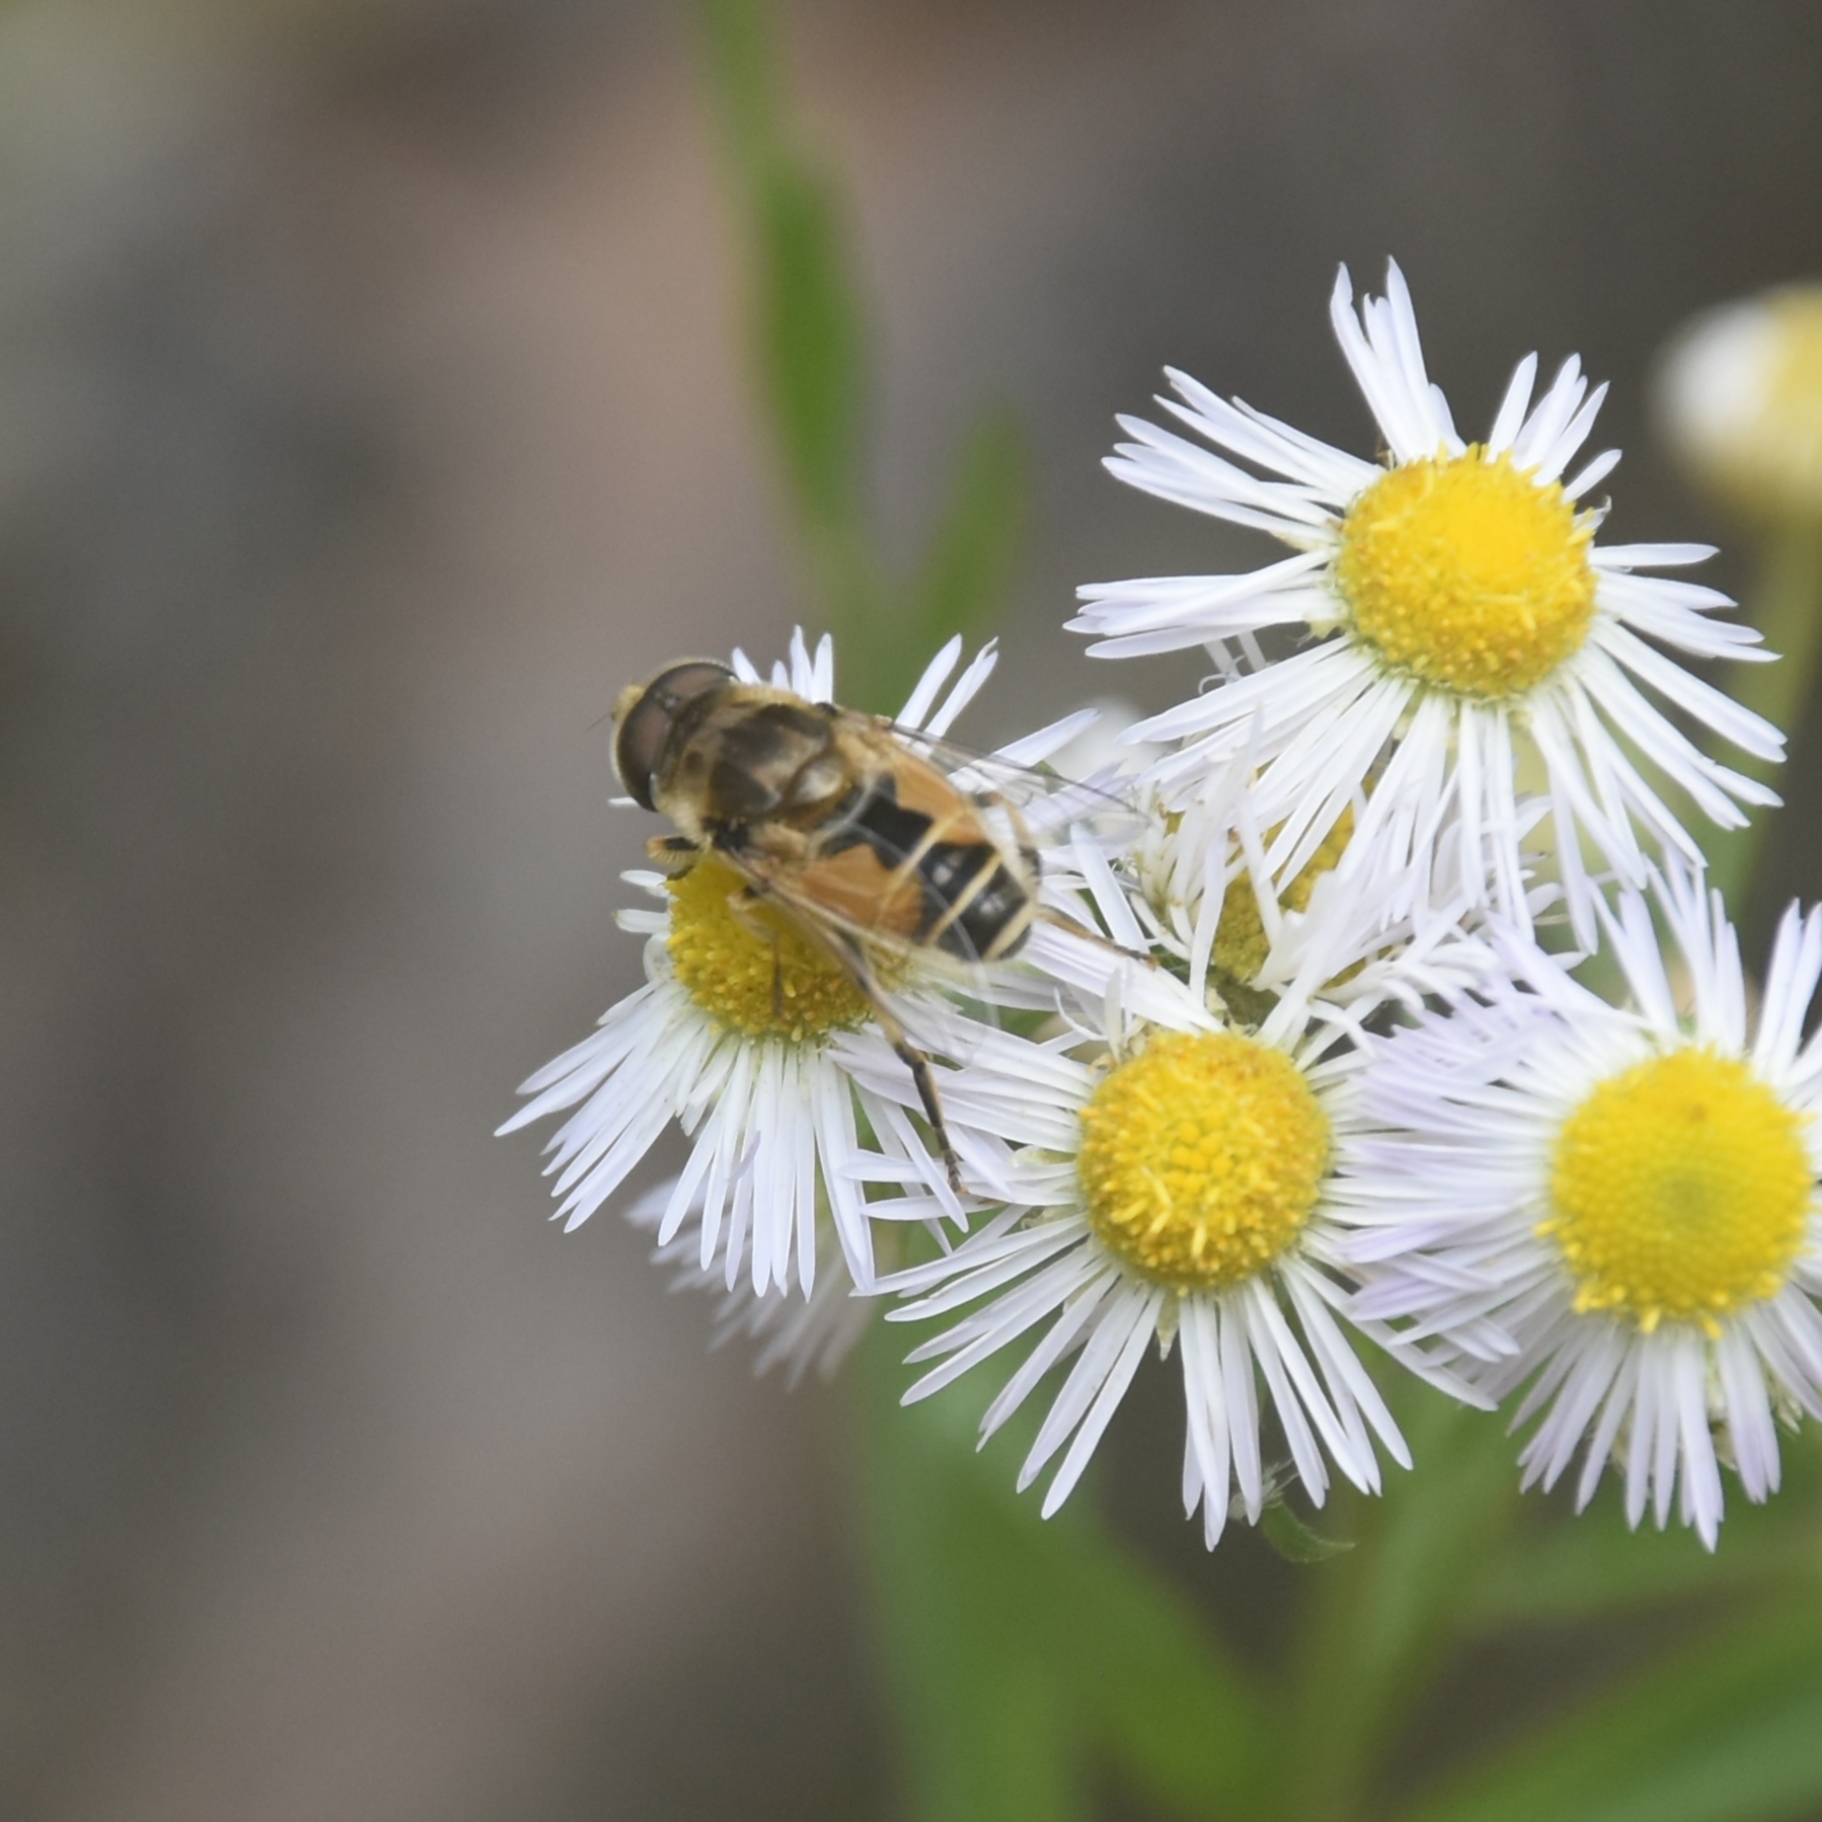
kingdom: Animalia
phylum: Arthropoda
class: Insecta
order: Diptera
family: Syrphidae
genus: Eristalis
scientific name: Eristalis arbustorum
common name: Hover fly
